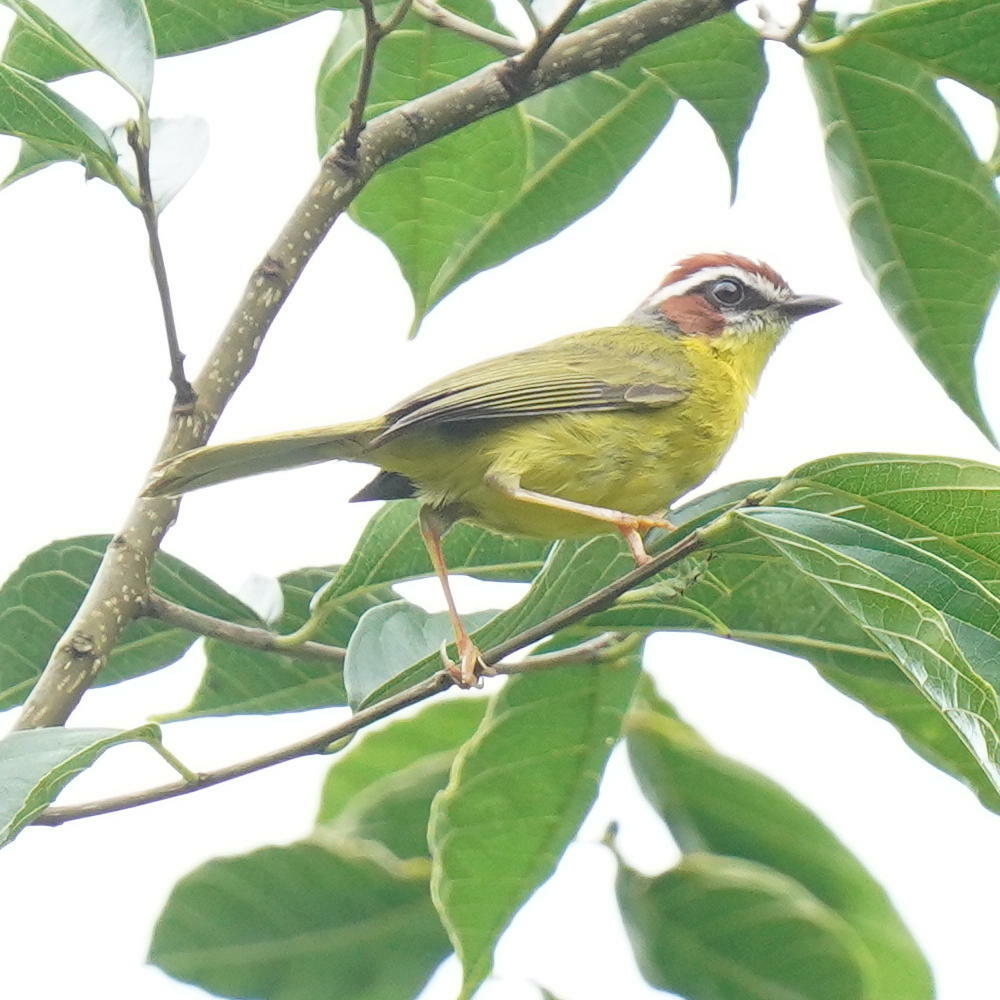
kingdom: Animalia
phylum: Chordata
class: Aves
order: Passeriformes
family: Parulidae
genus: Basileuterus
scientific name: Basileuterus rufifrons
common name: Rufous-capped warbler
